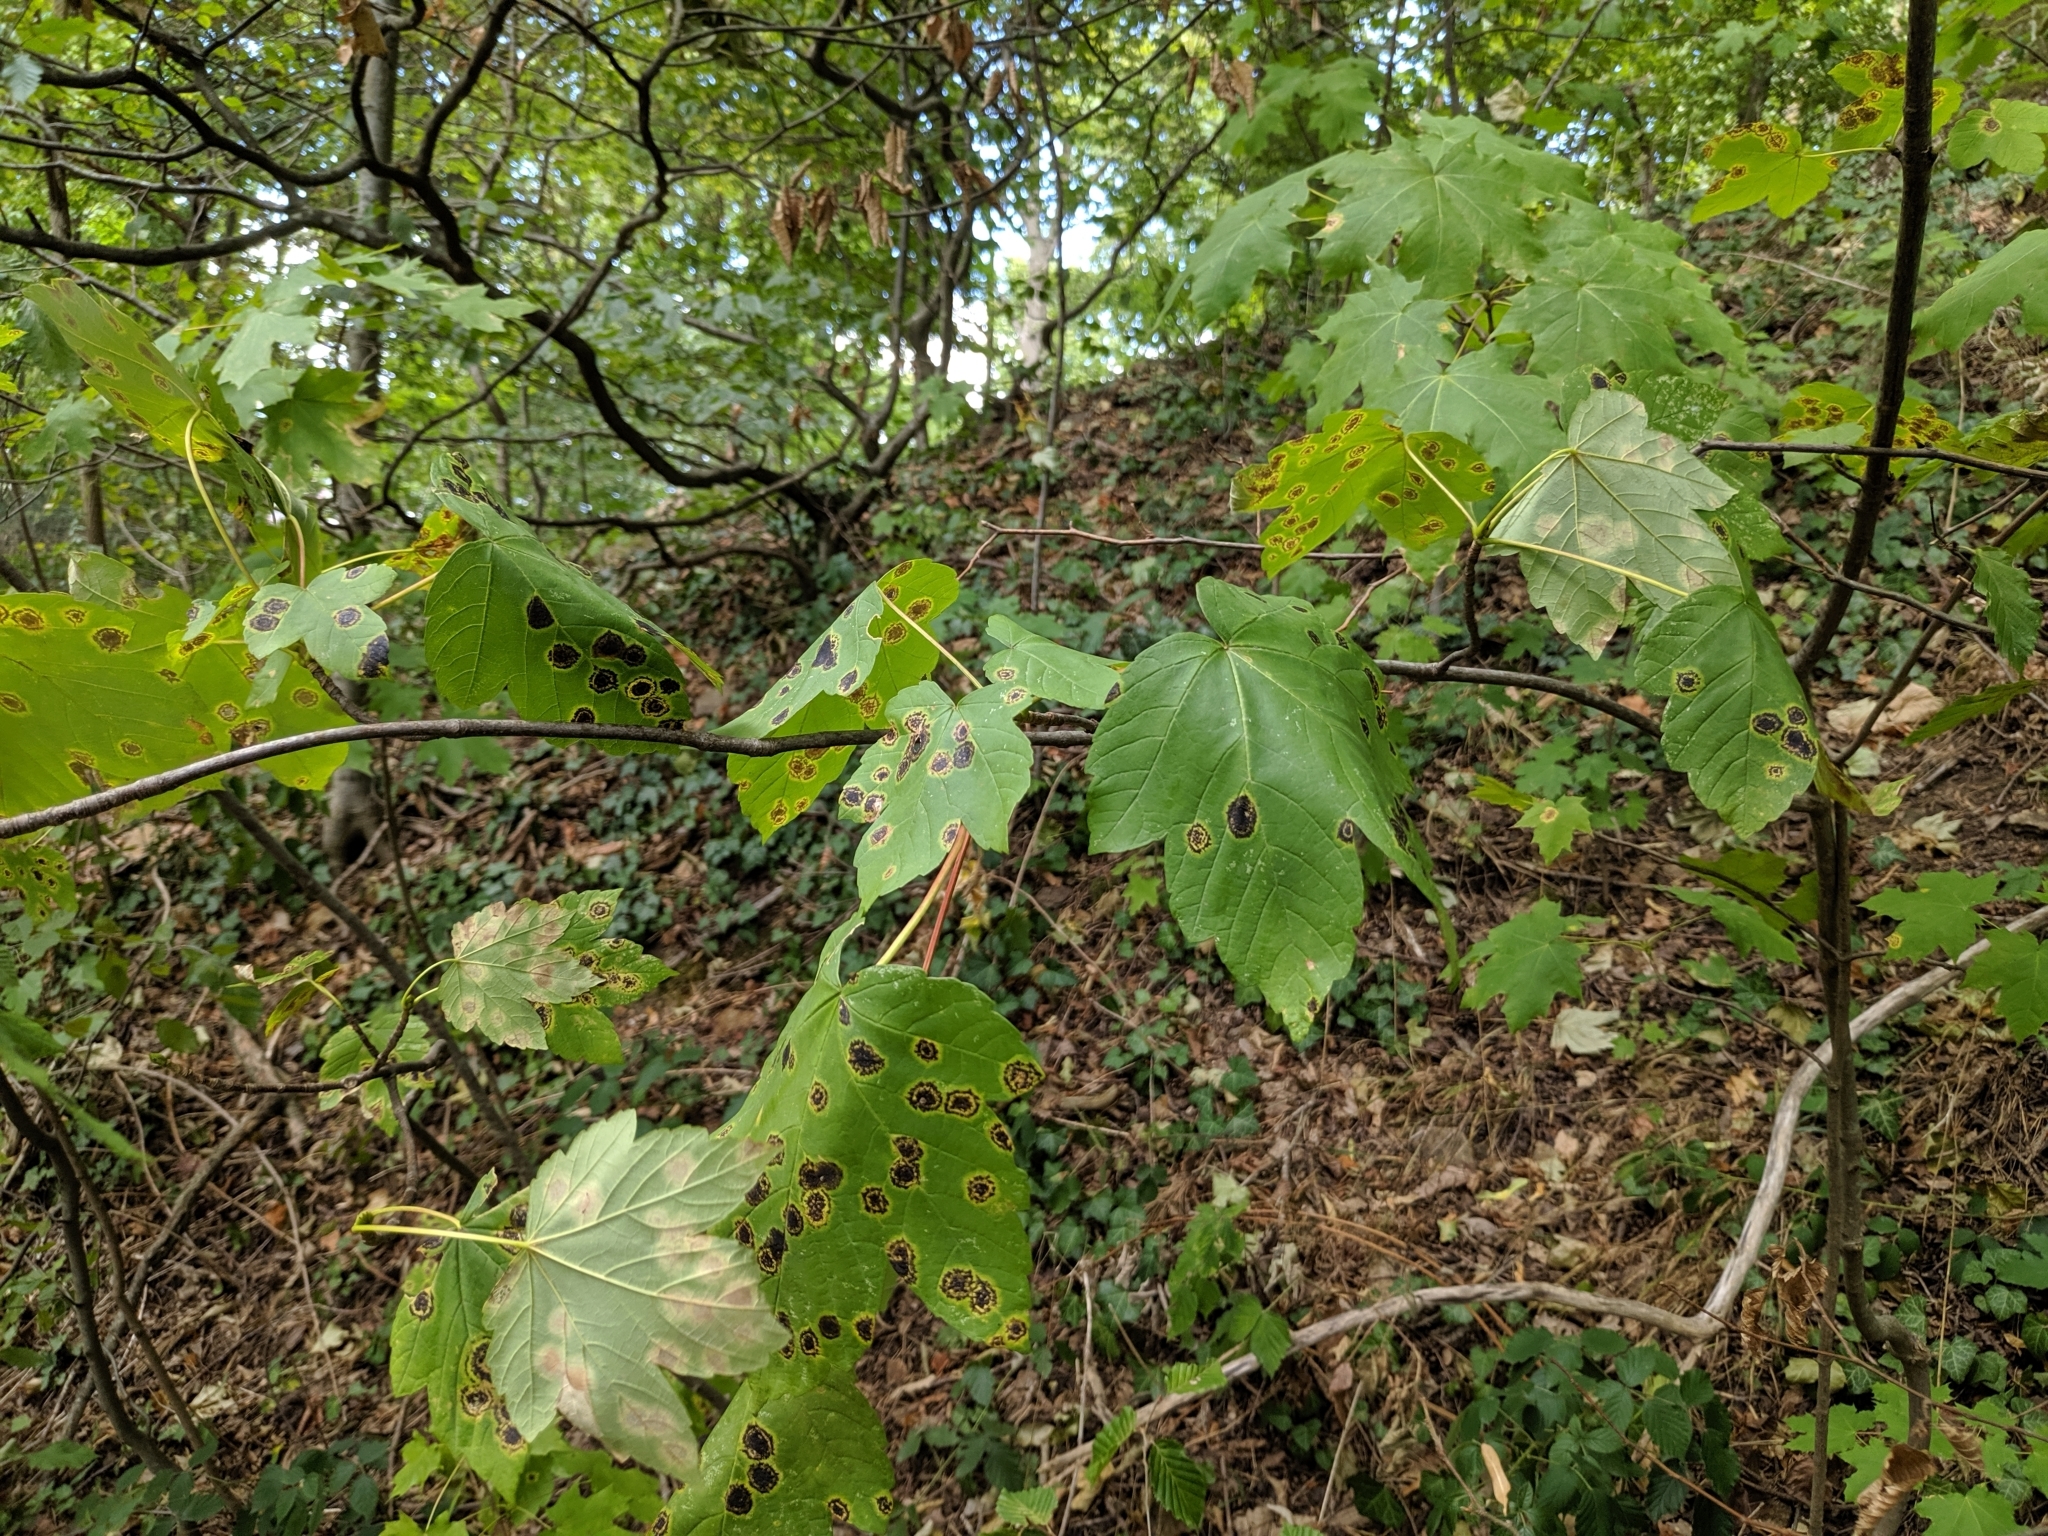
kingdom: Plantae
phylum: Tracheophyta
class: Magnoliopsida
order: Sapindales
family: Sapindaceae
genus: Acer
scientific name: Acer pseudoplatanus
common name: Sycamore
